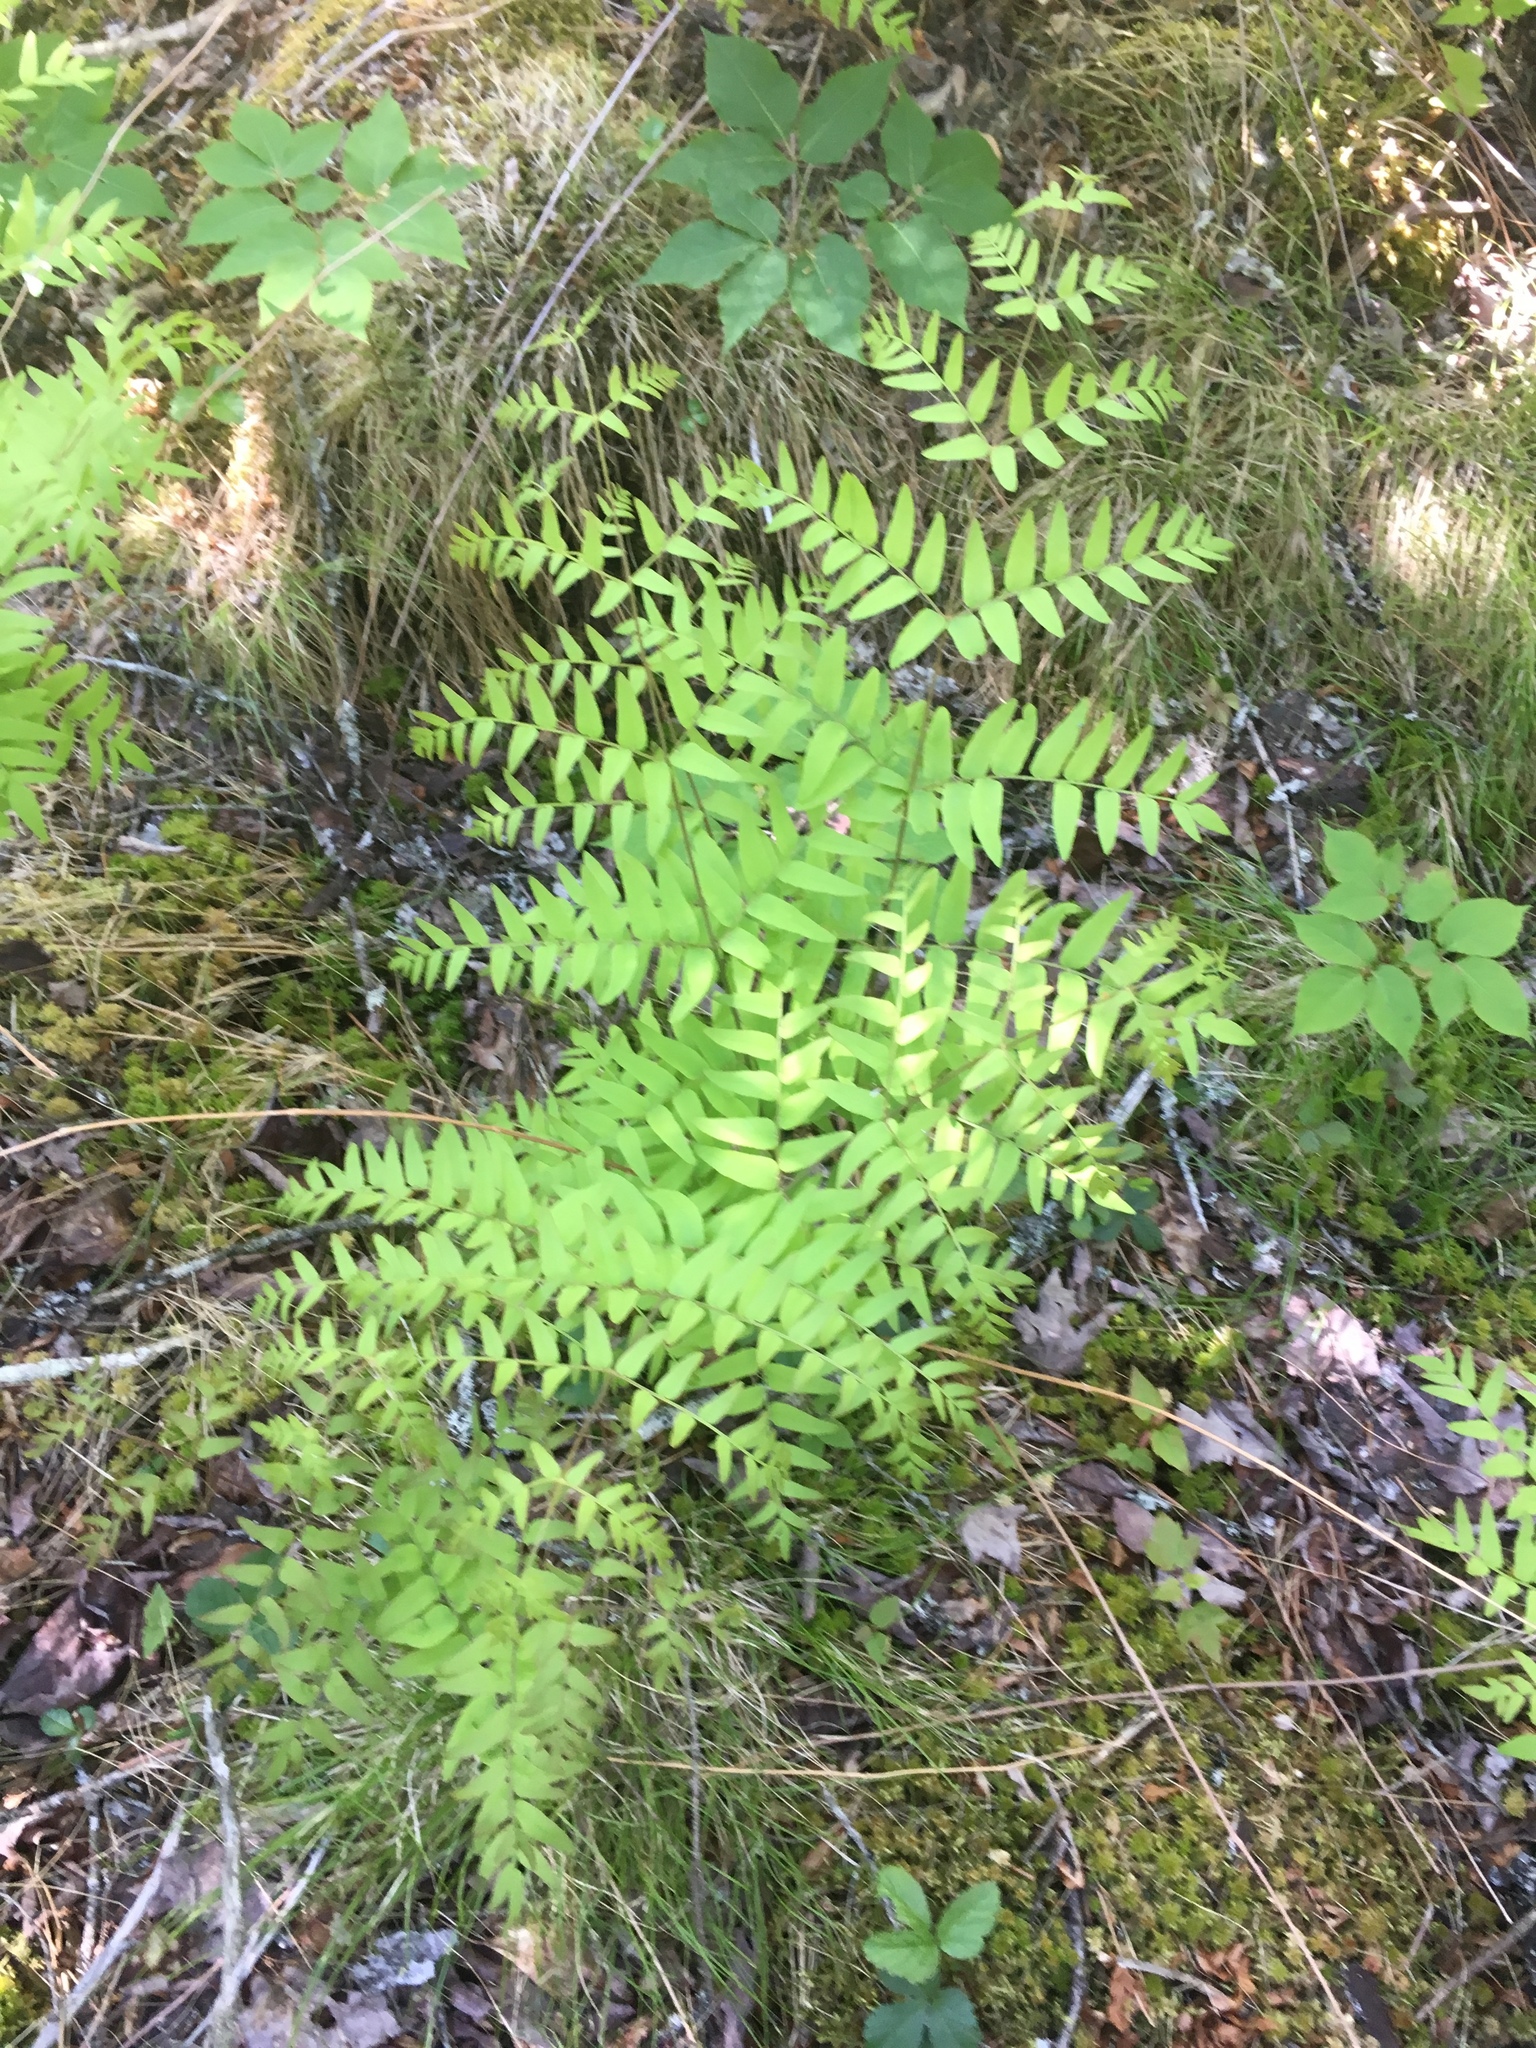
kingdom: Plantae
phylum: Tracheophyta
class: Polypodiopsida
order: Osmundales
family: Osmundaceae
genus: Osmunda
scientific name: Osmunda spectabilis
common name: American royal fern
